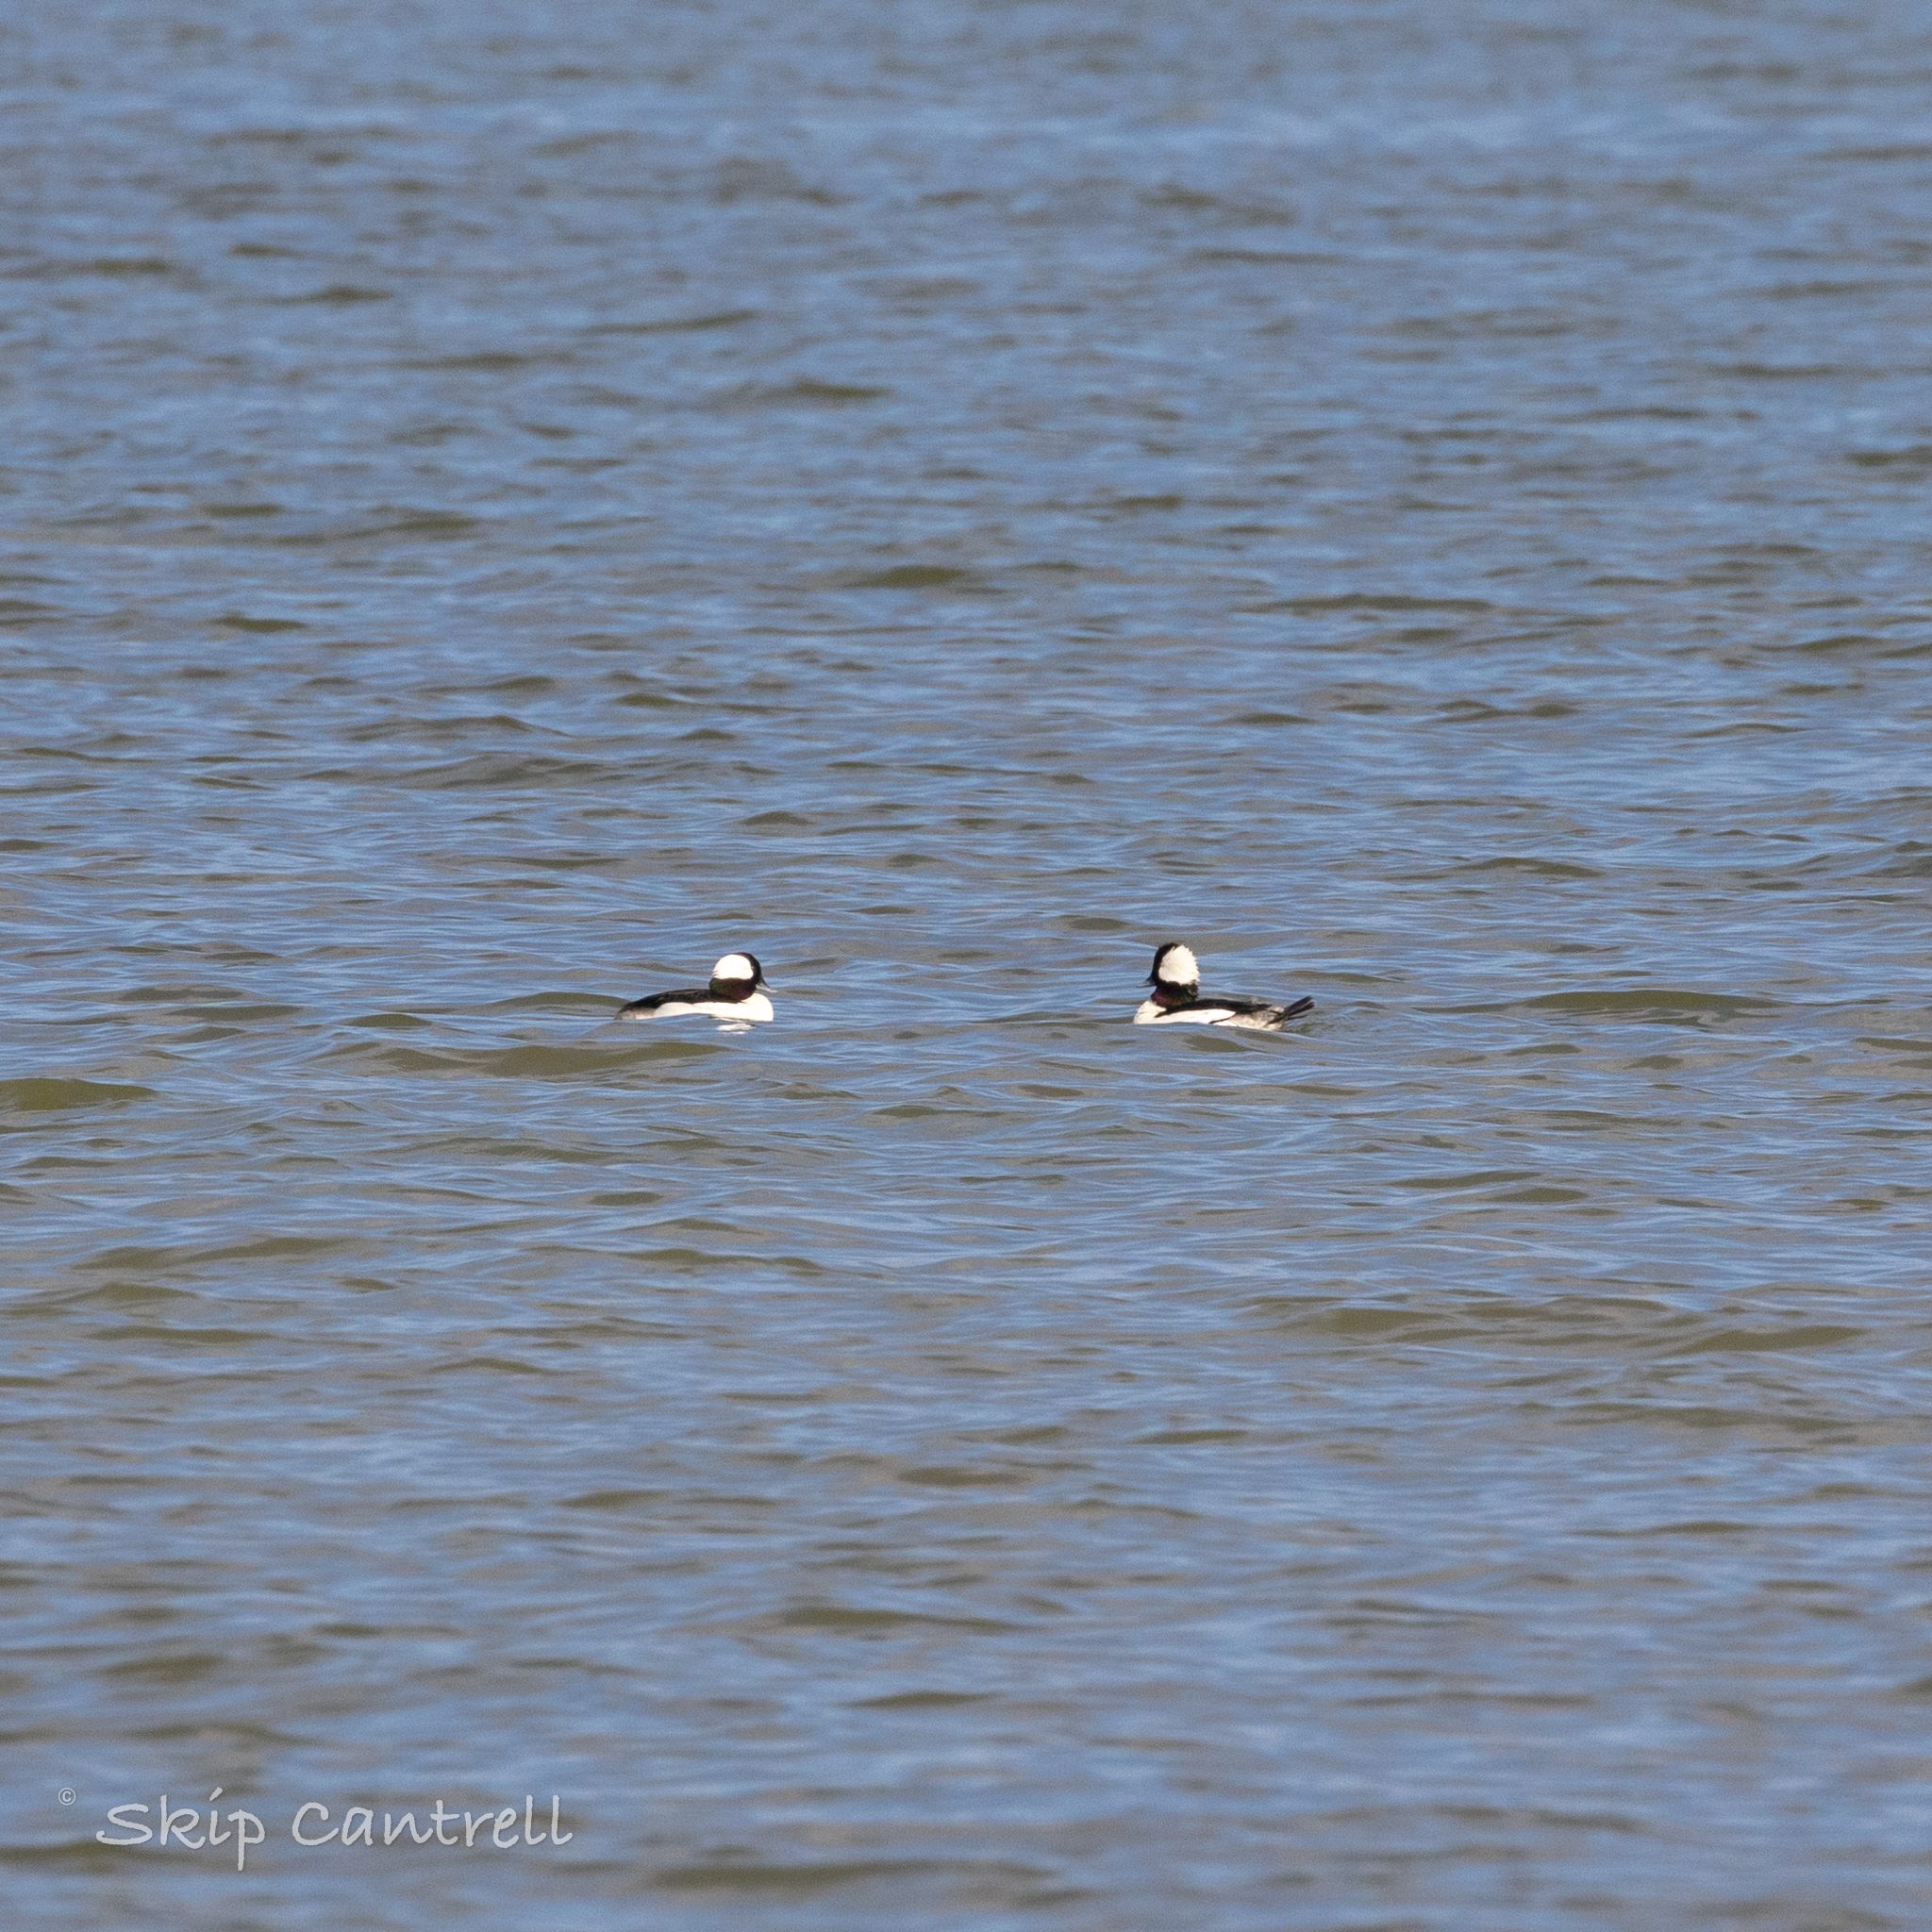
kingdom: Animalia
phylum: Chordata
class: Aves
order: Anseriformes
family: Anatidae
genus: Bucephala
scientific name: Bucephala albeola
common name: Bufflehead
